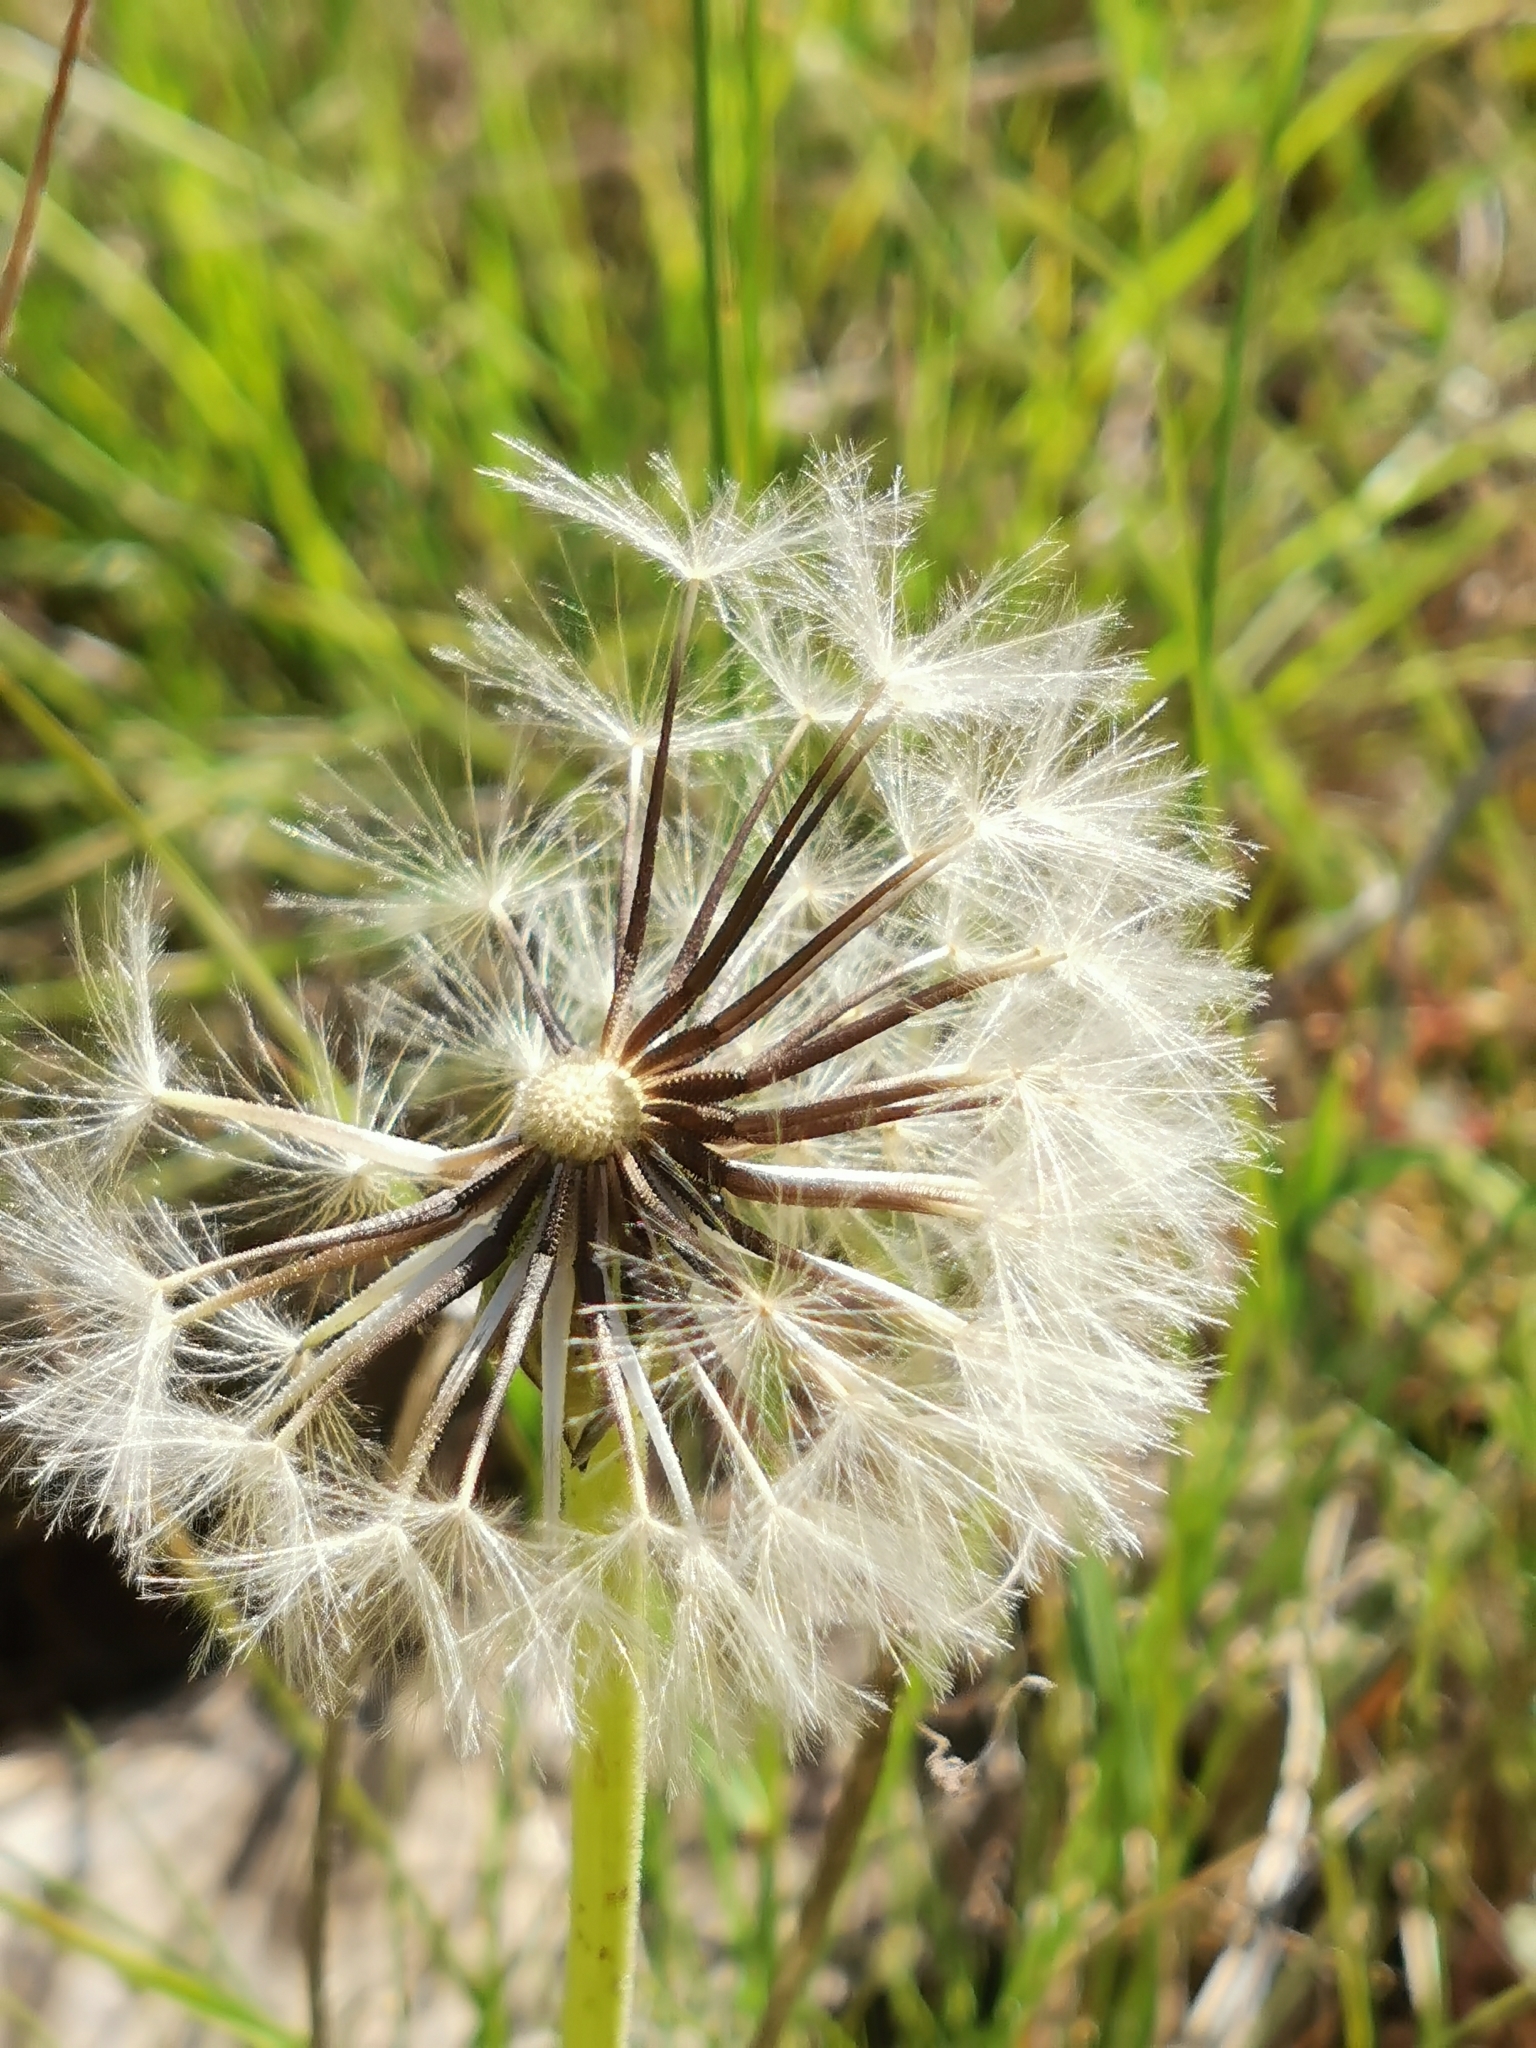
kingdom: Plantae
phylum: Tracheophyta
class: Magnoliopsida
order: Asterales
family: Asteraceae
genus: Urospermum
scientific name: Urospermum dalechampii
